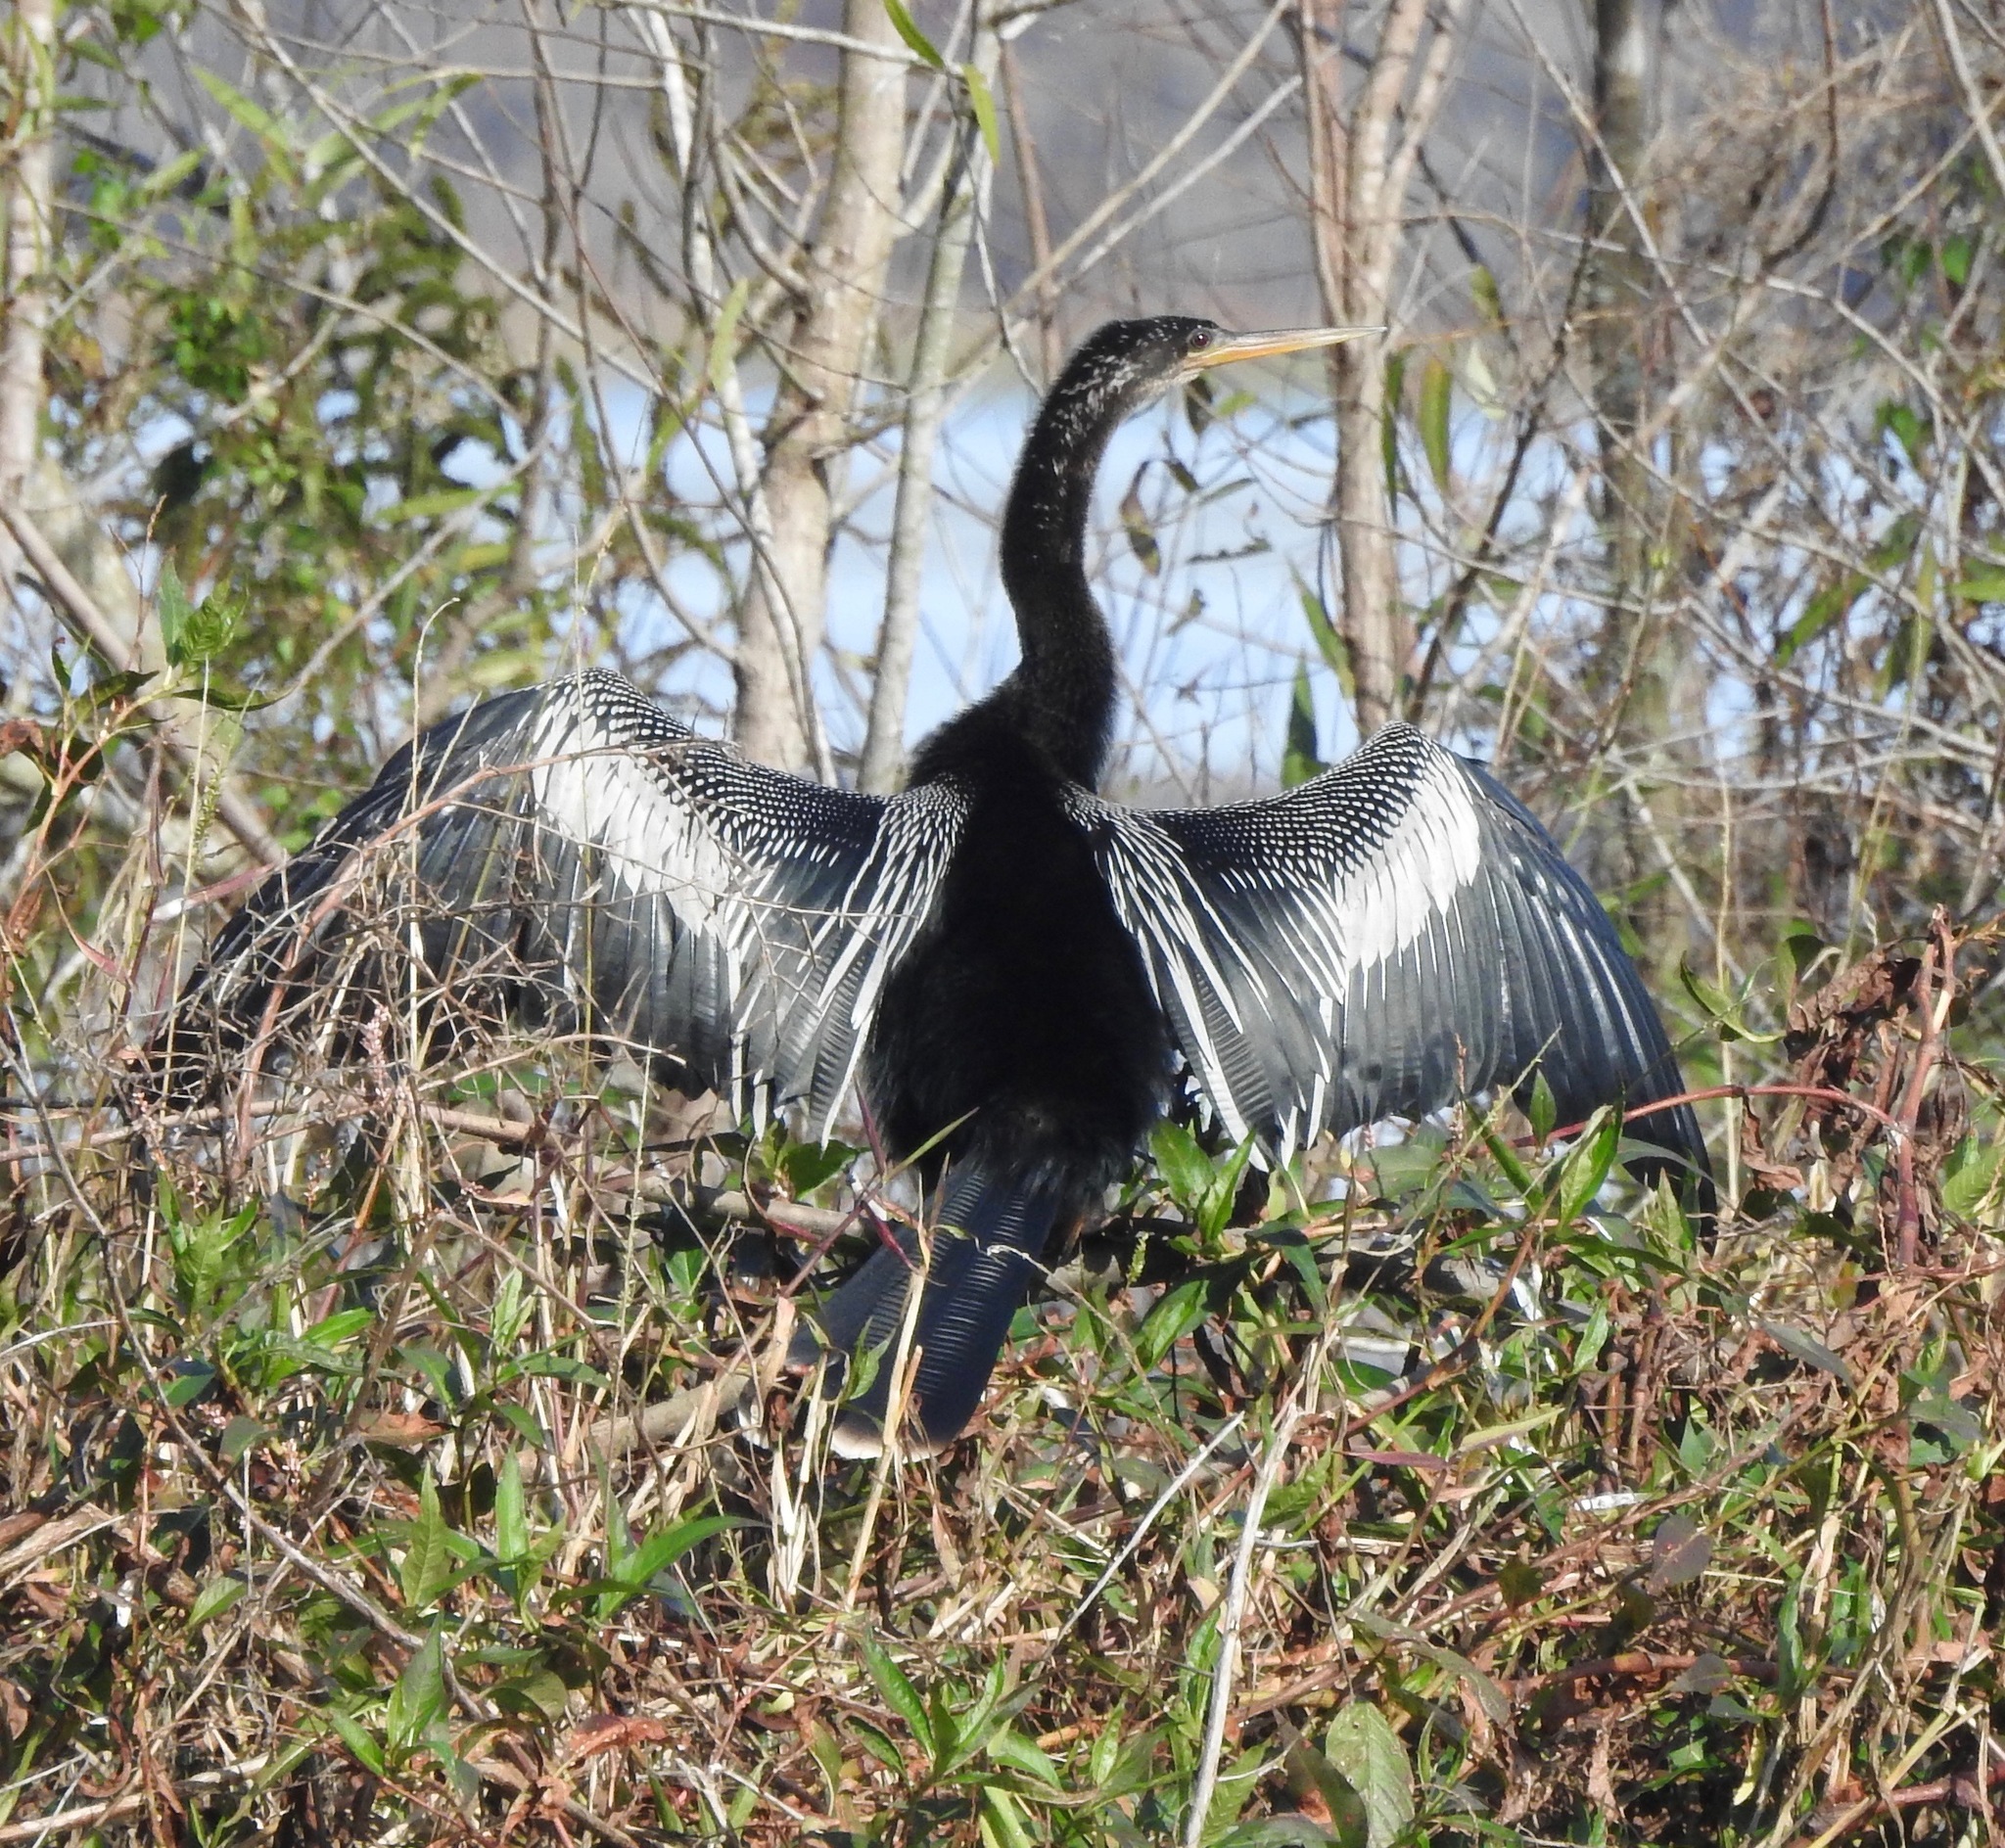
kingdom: Animalia
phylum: Chordata
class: Aves
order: Suliformes
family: Anhingidae
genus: Anhinga
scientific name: Anhinga anhinga
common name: Anhinga
